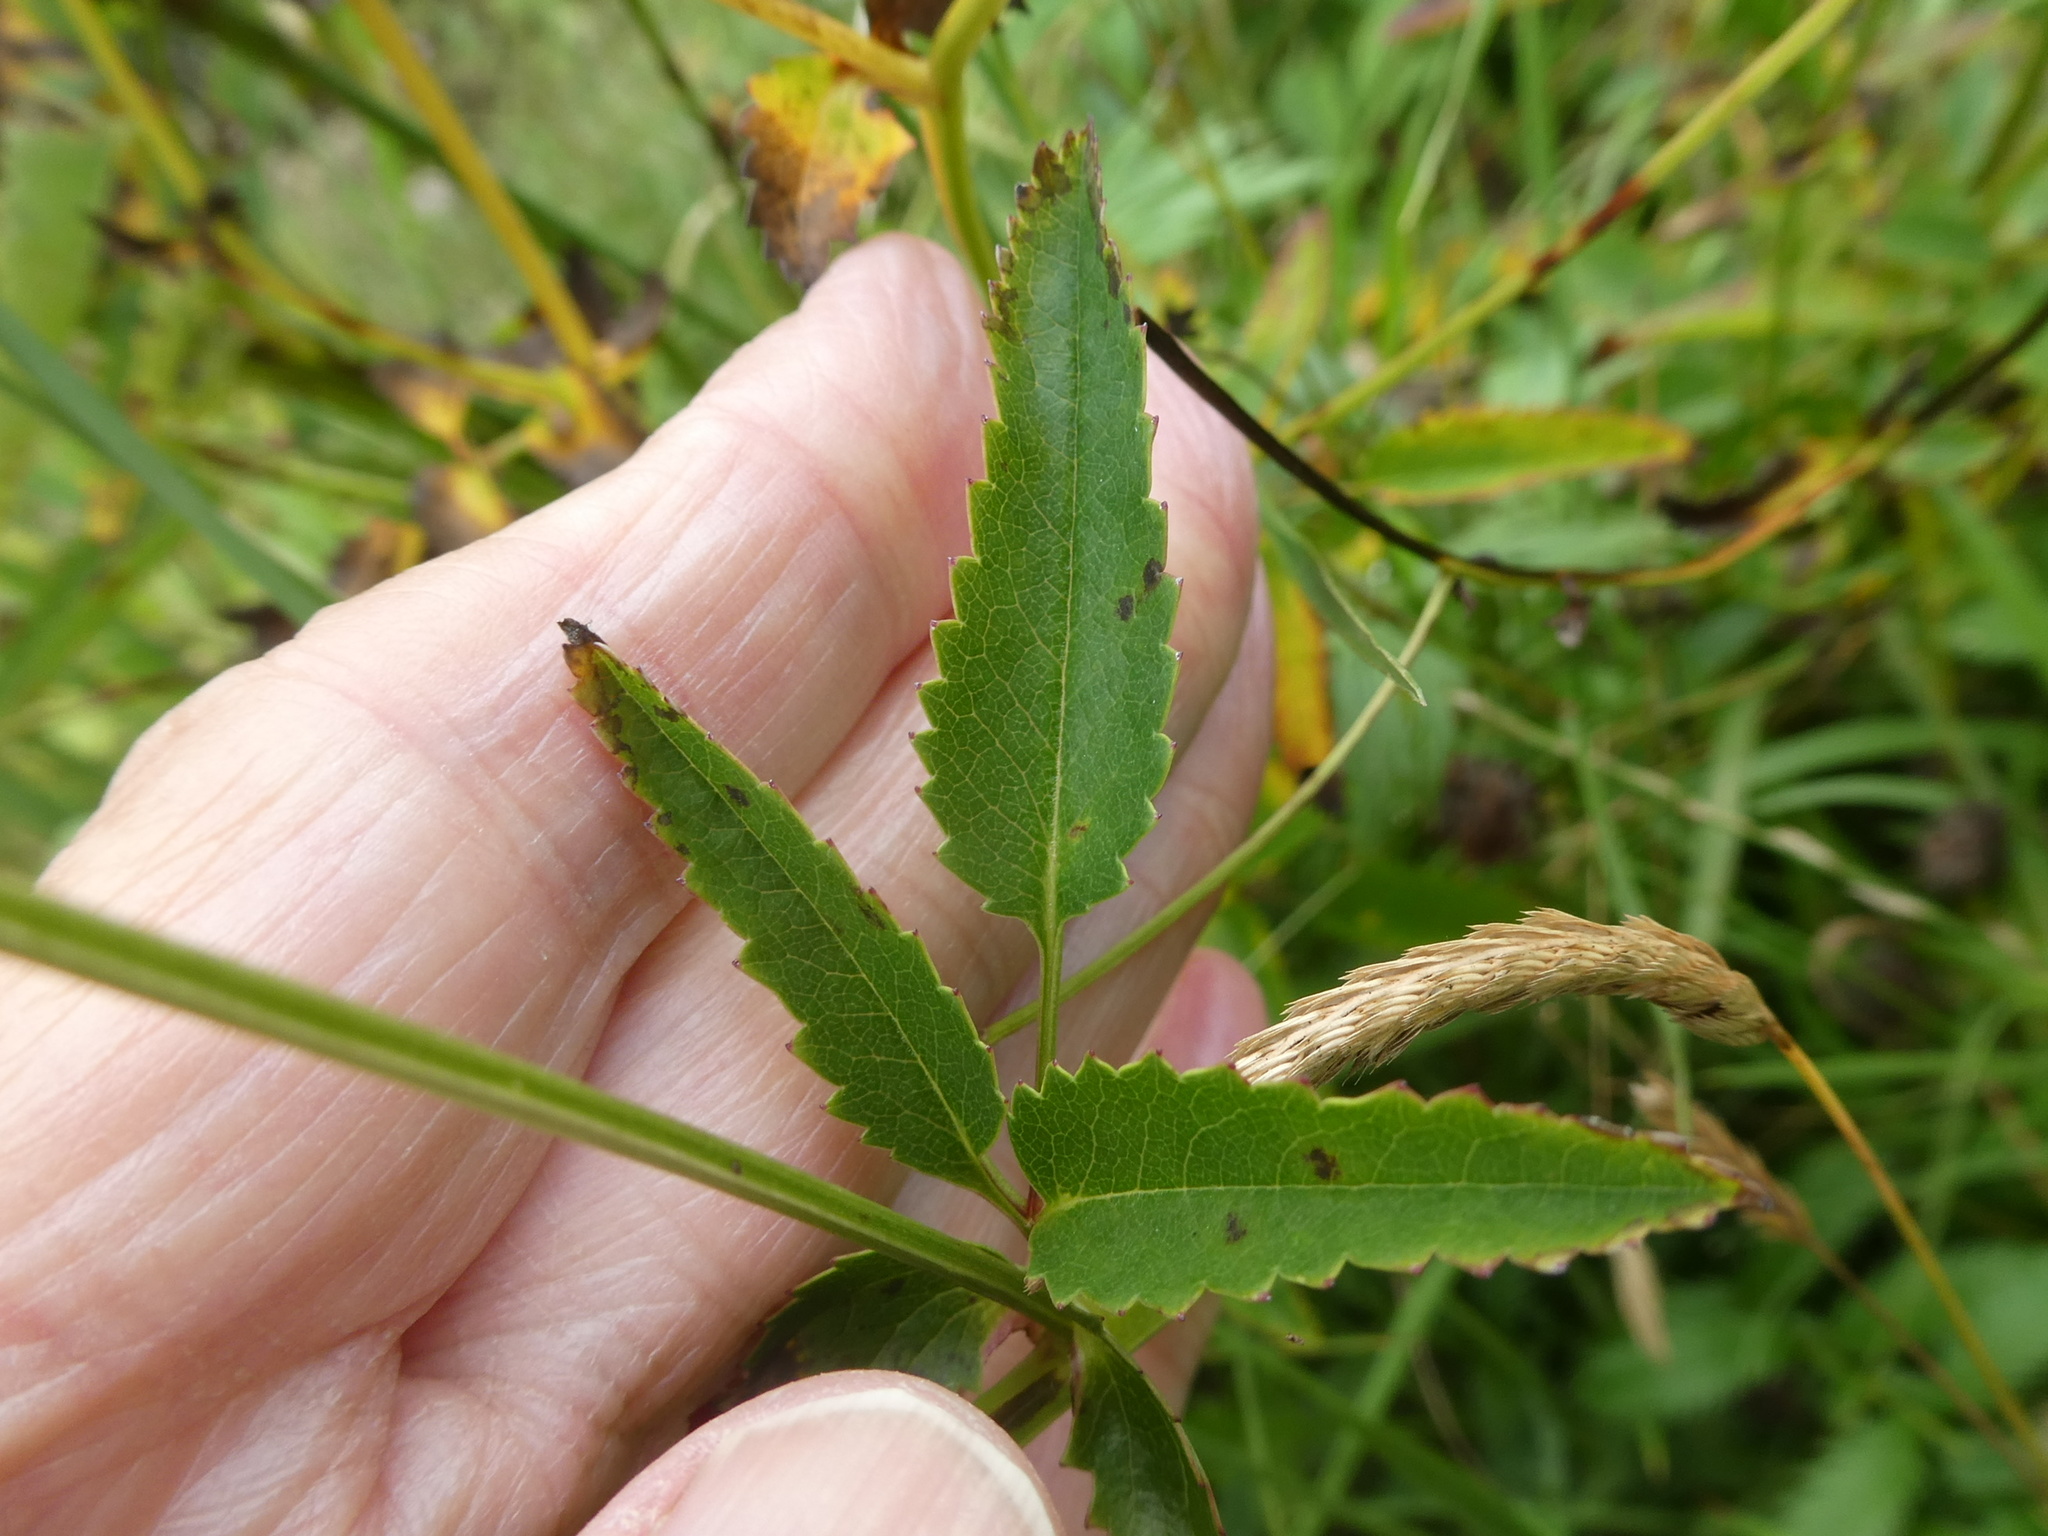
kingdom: Plantae
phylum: Tracheophyta
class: Magnoliopsida
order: Rosales
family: Rosaceae
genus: Sanguisorba
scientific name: Sanguisorba officinalis
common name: Great burnet
